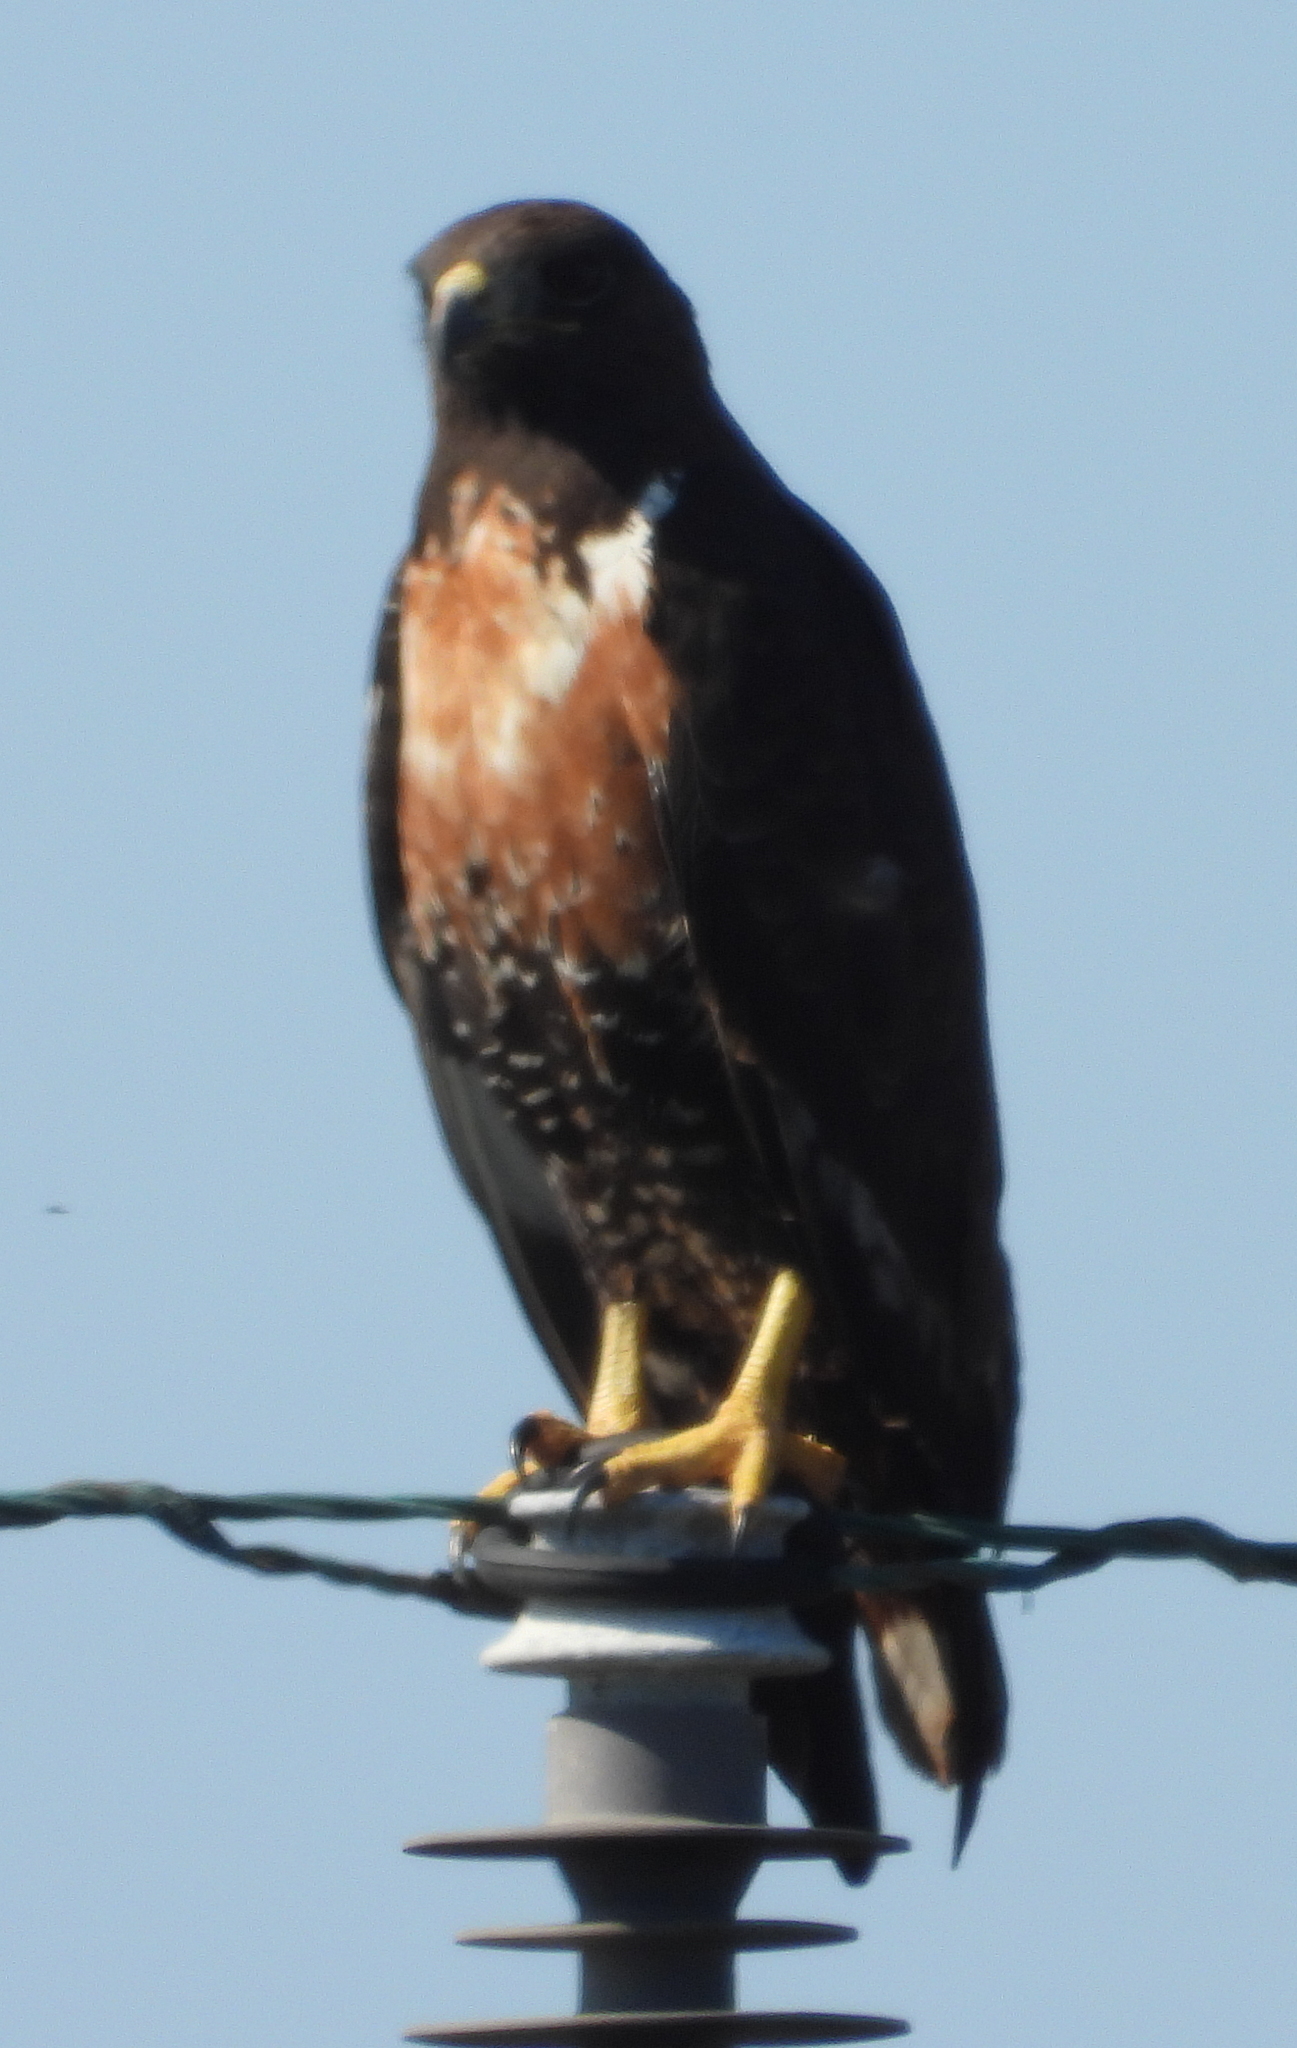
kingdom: Animalia
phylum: Chordata
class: Aves
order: Accipitriformes
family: Accipitridae
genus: Buteo
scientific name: Buteo rufofuscus
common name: Jackal buzzard
